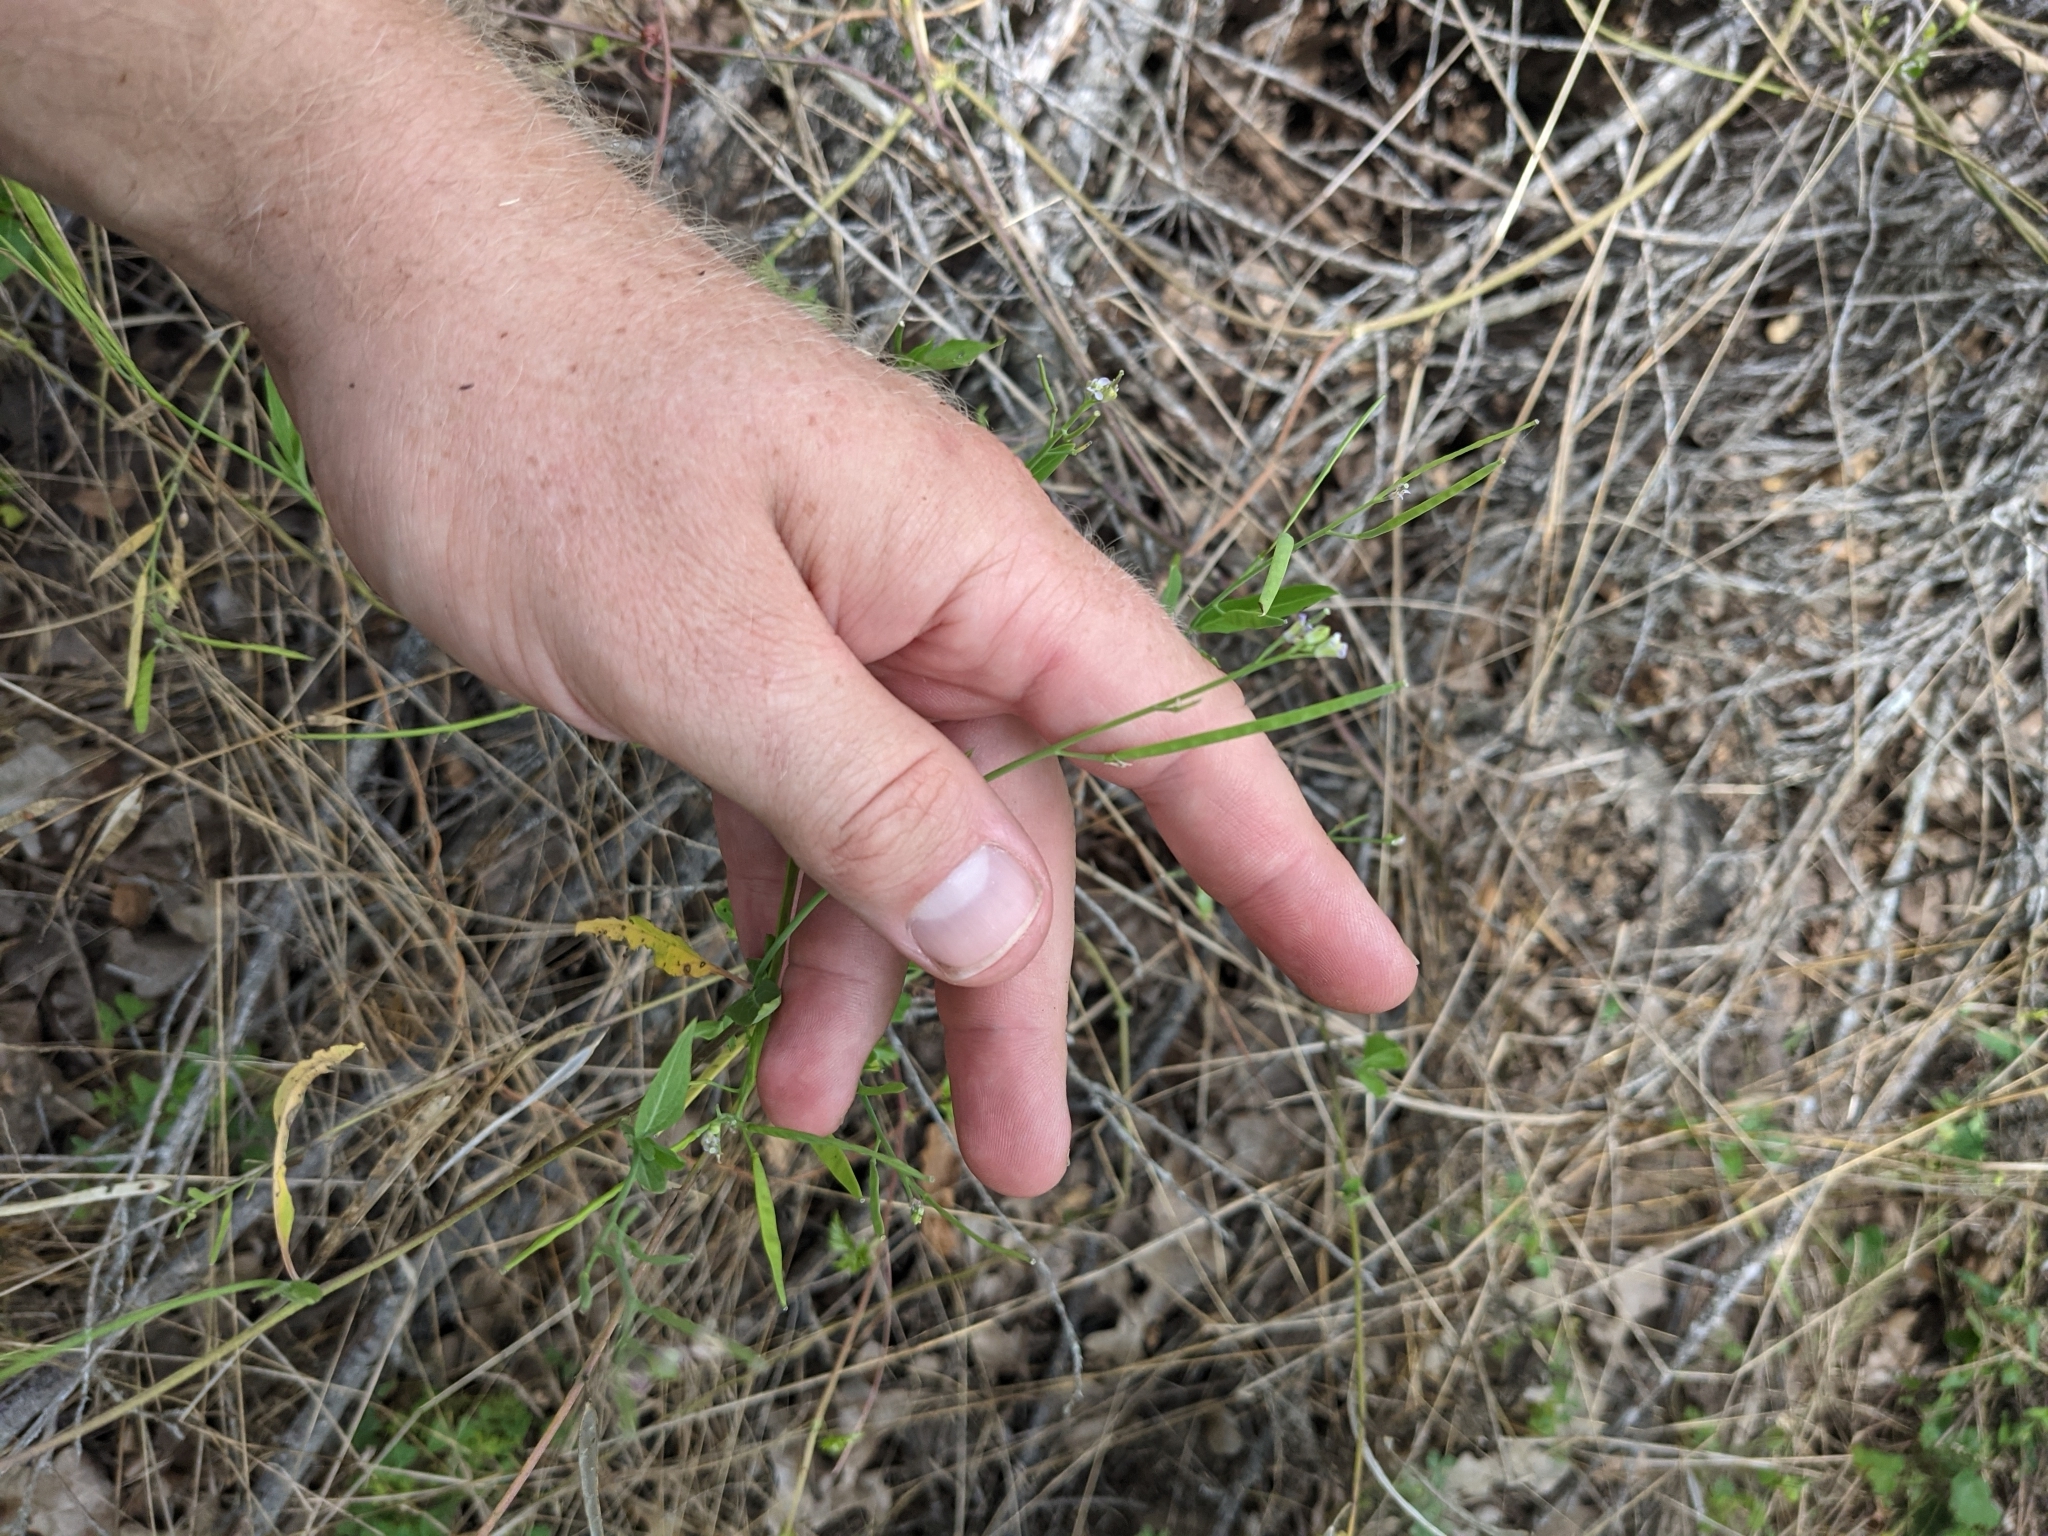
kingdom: Plantae
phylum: Tracheophyta
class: Magnoliopsida
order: Brassicales
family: Brassicaceae
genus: Streptanthus
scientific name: Streptanthus petiolaris
